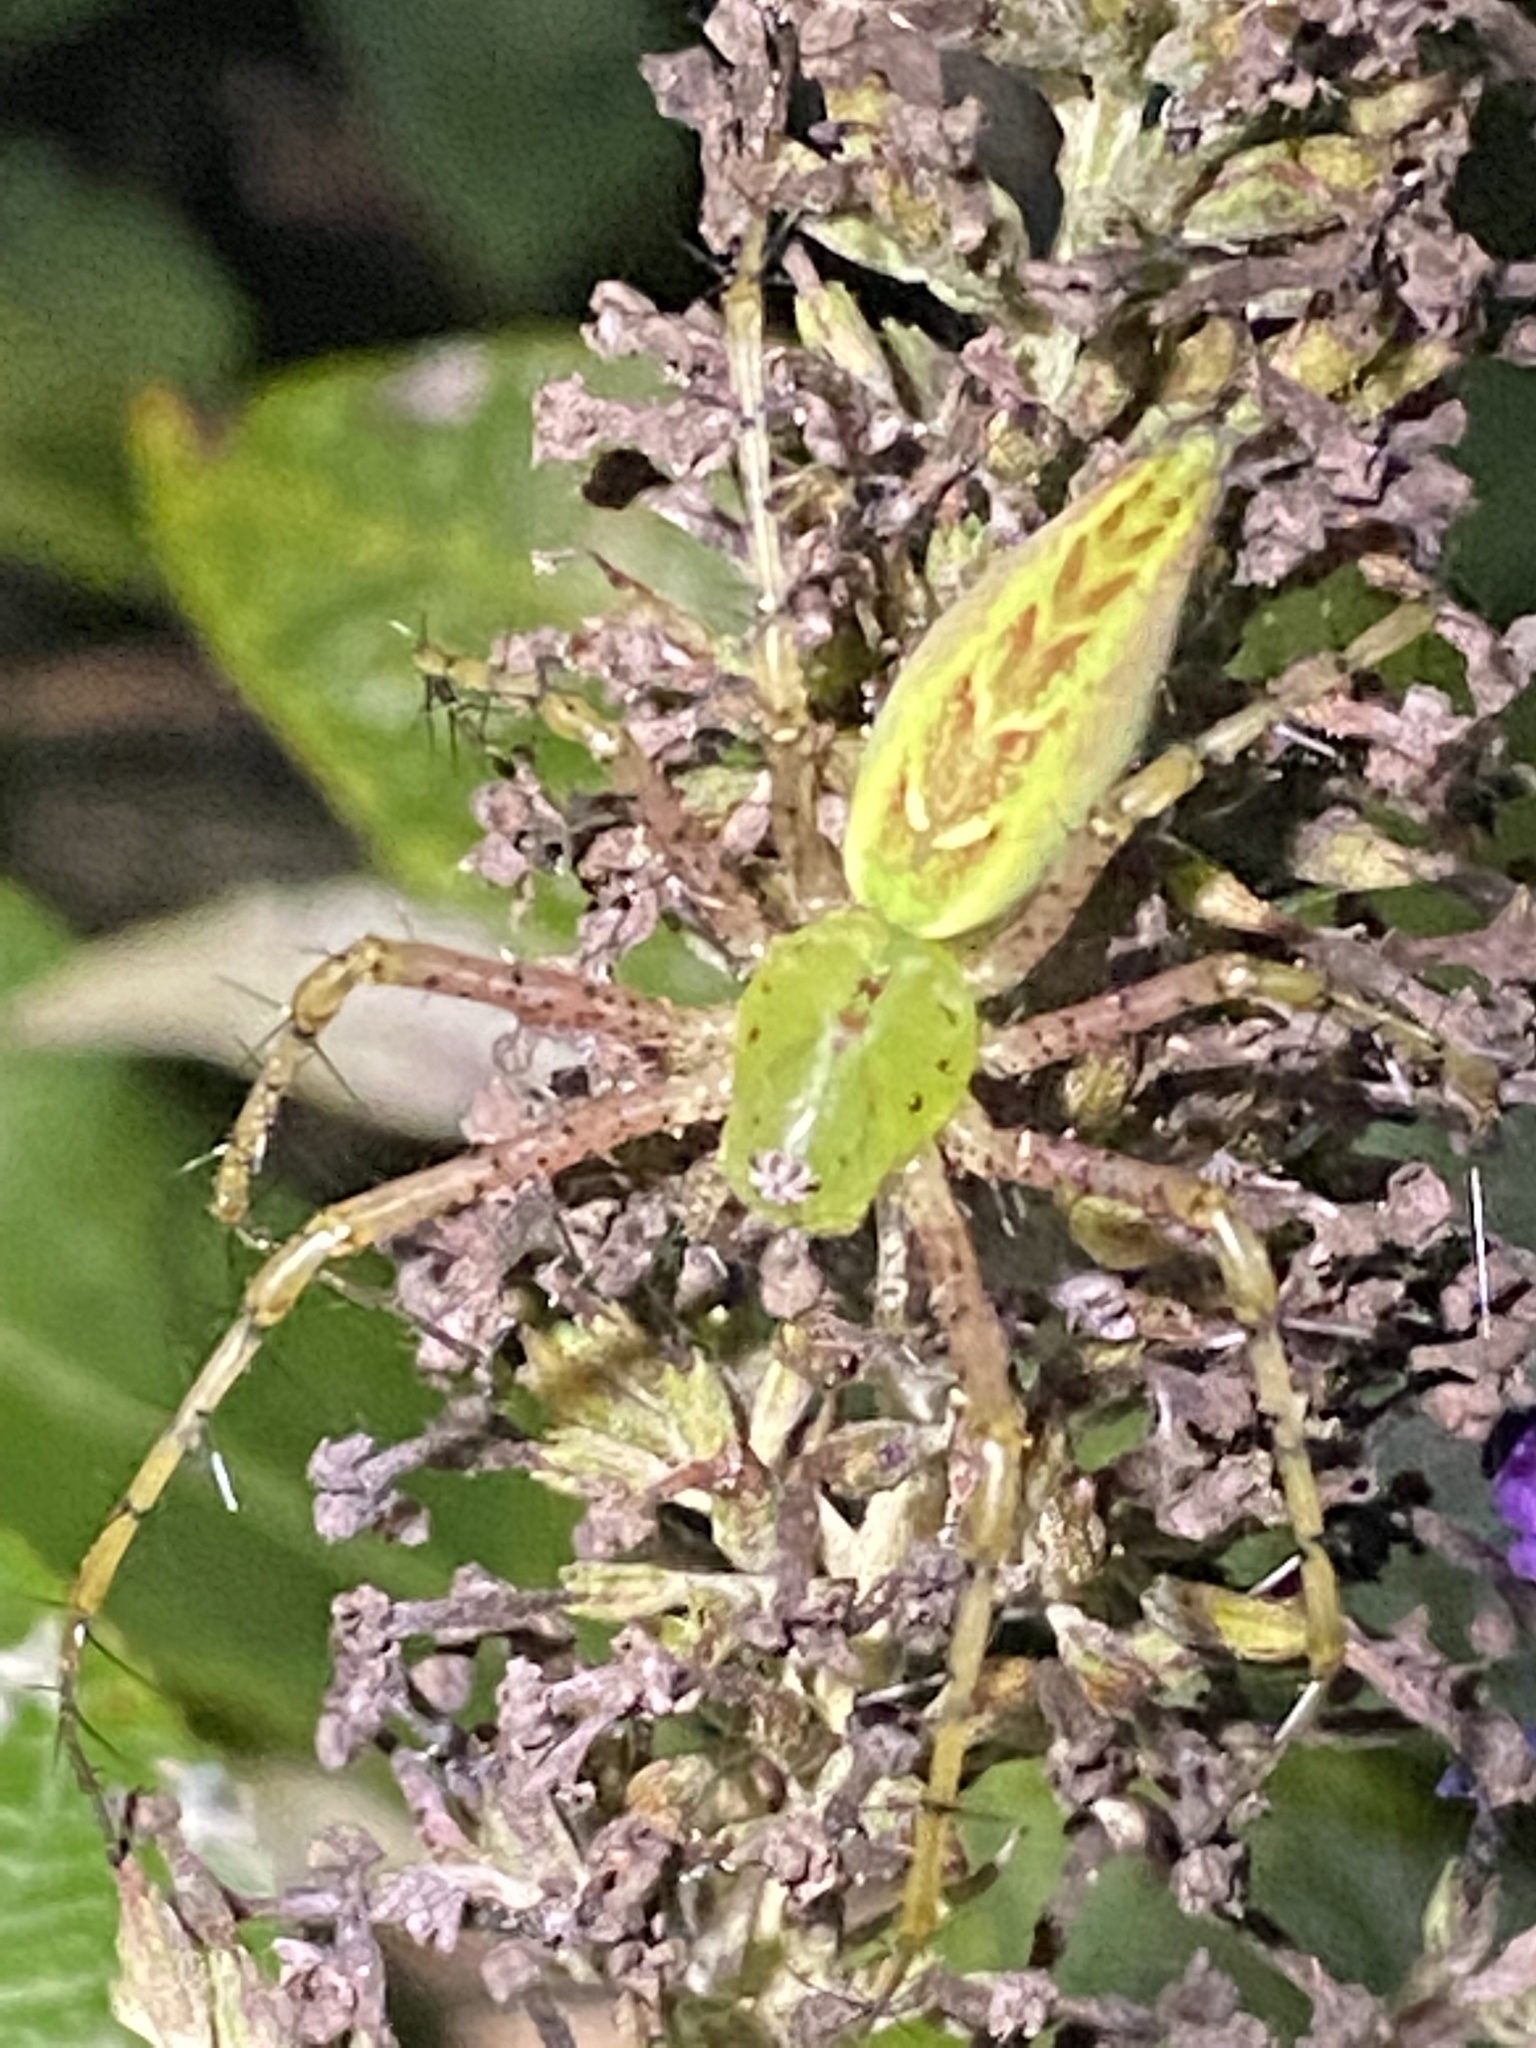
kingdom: Animalia
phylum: Arthropoda
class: Arachnida
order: Araneae
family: Oxyopidae
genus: Peucetia
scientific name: Peucetia viridans
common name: Lynx spiders
